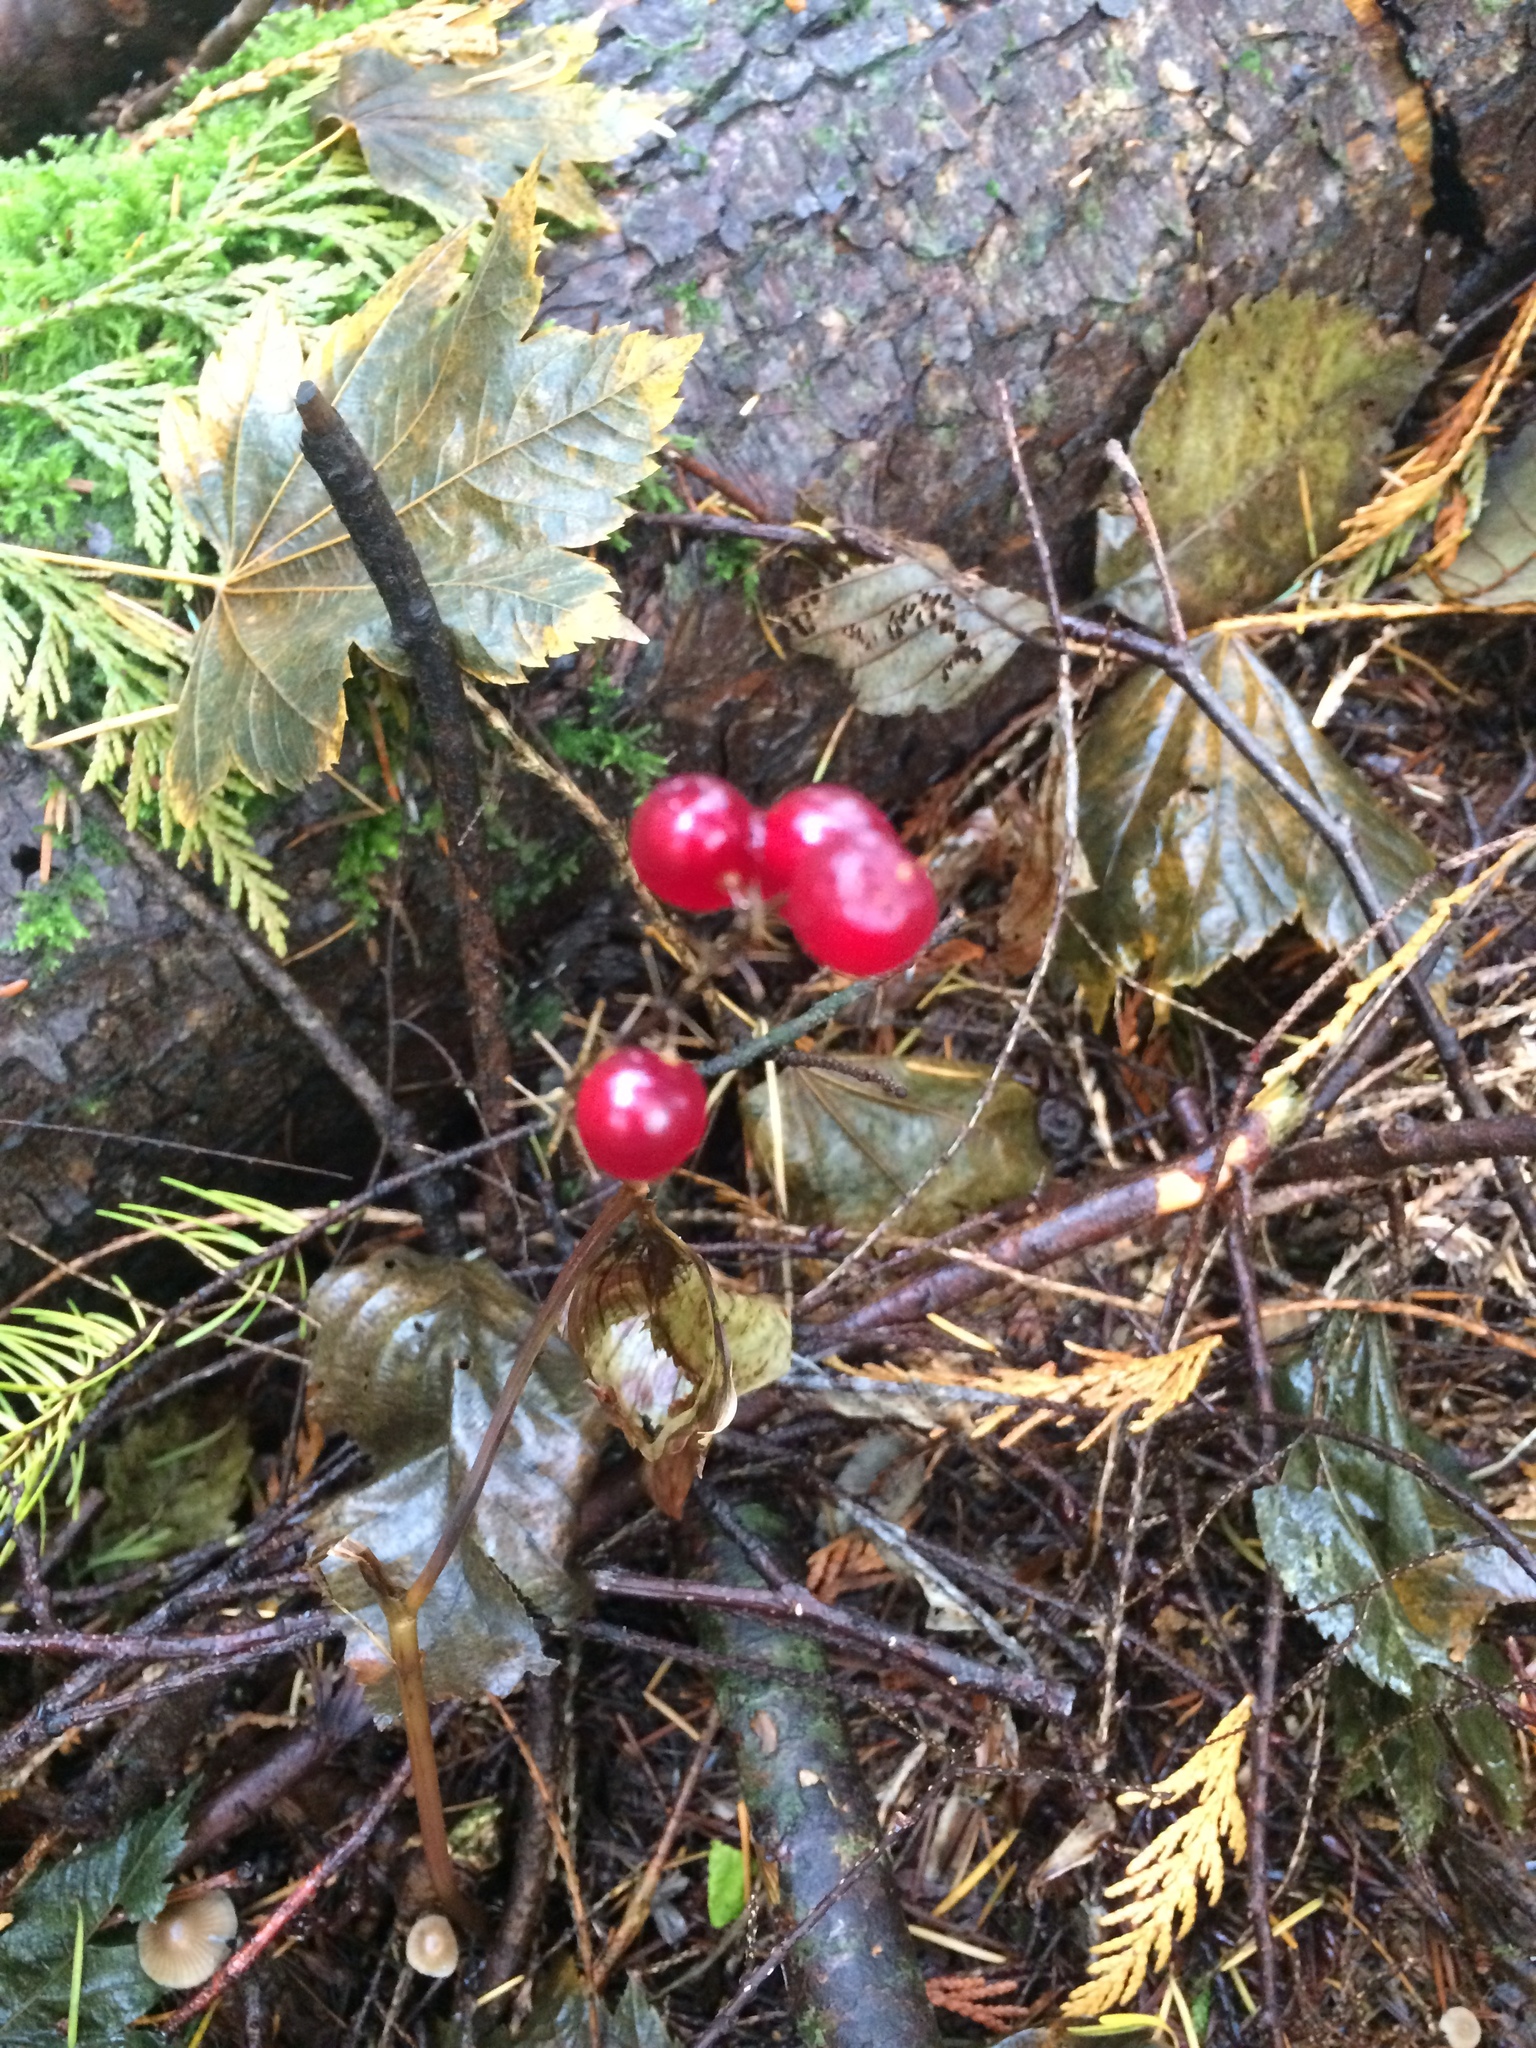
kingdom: Plantae
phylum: Tracheophyta
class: Liliopsida
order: Asparagales
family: Asparagaceae
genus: Maianthemum
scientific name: Maianthemum dilatatum
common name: False lily-of-the-valley
